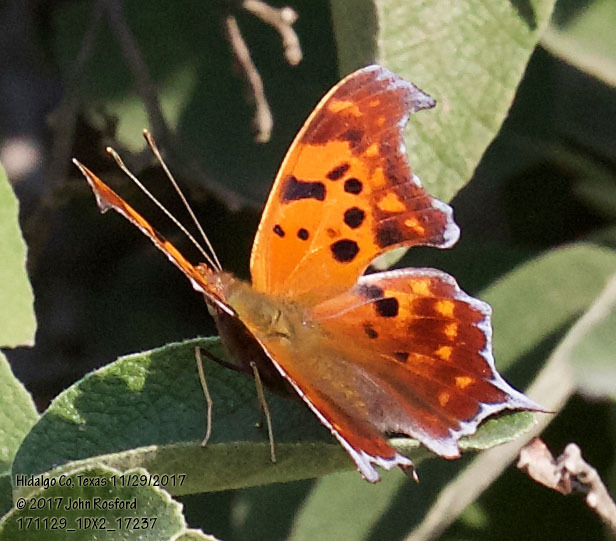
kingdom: Animalia
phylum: Arthropoda
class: Insecta
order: Lepidoptera
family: Nymphalidae
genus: Polygonia
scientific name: Polygonia interrogationis
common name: Question mark
